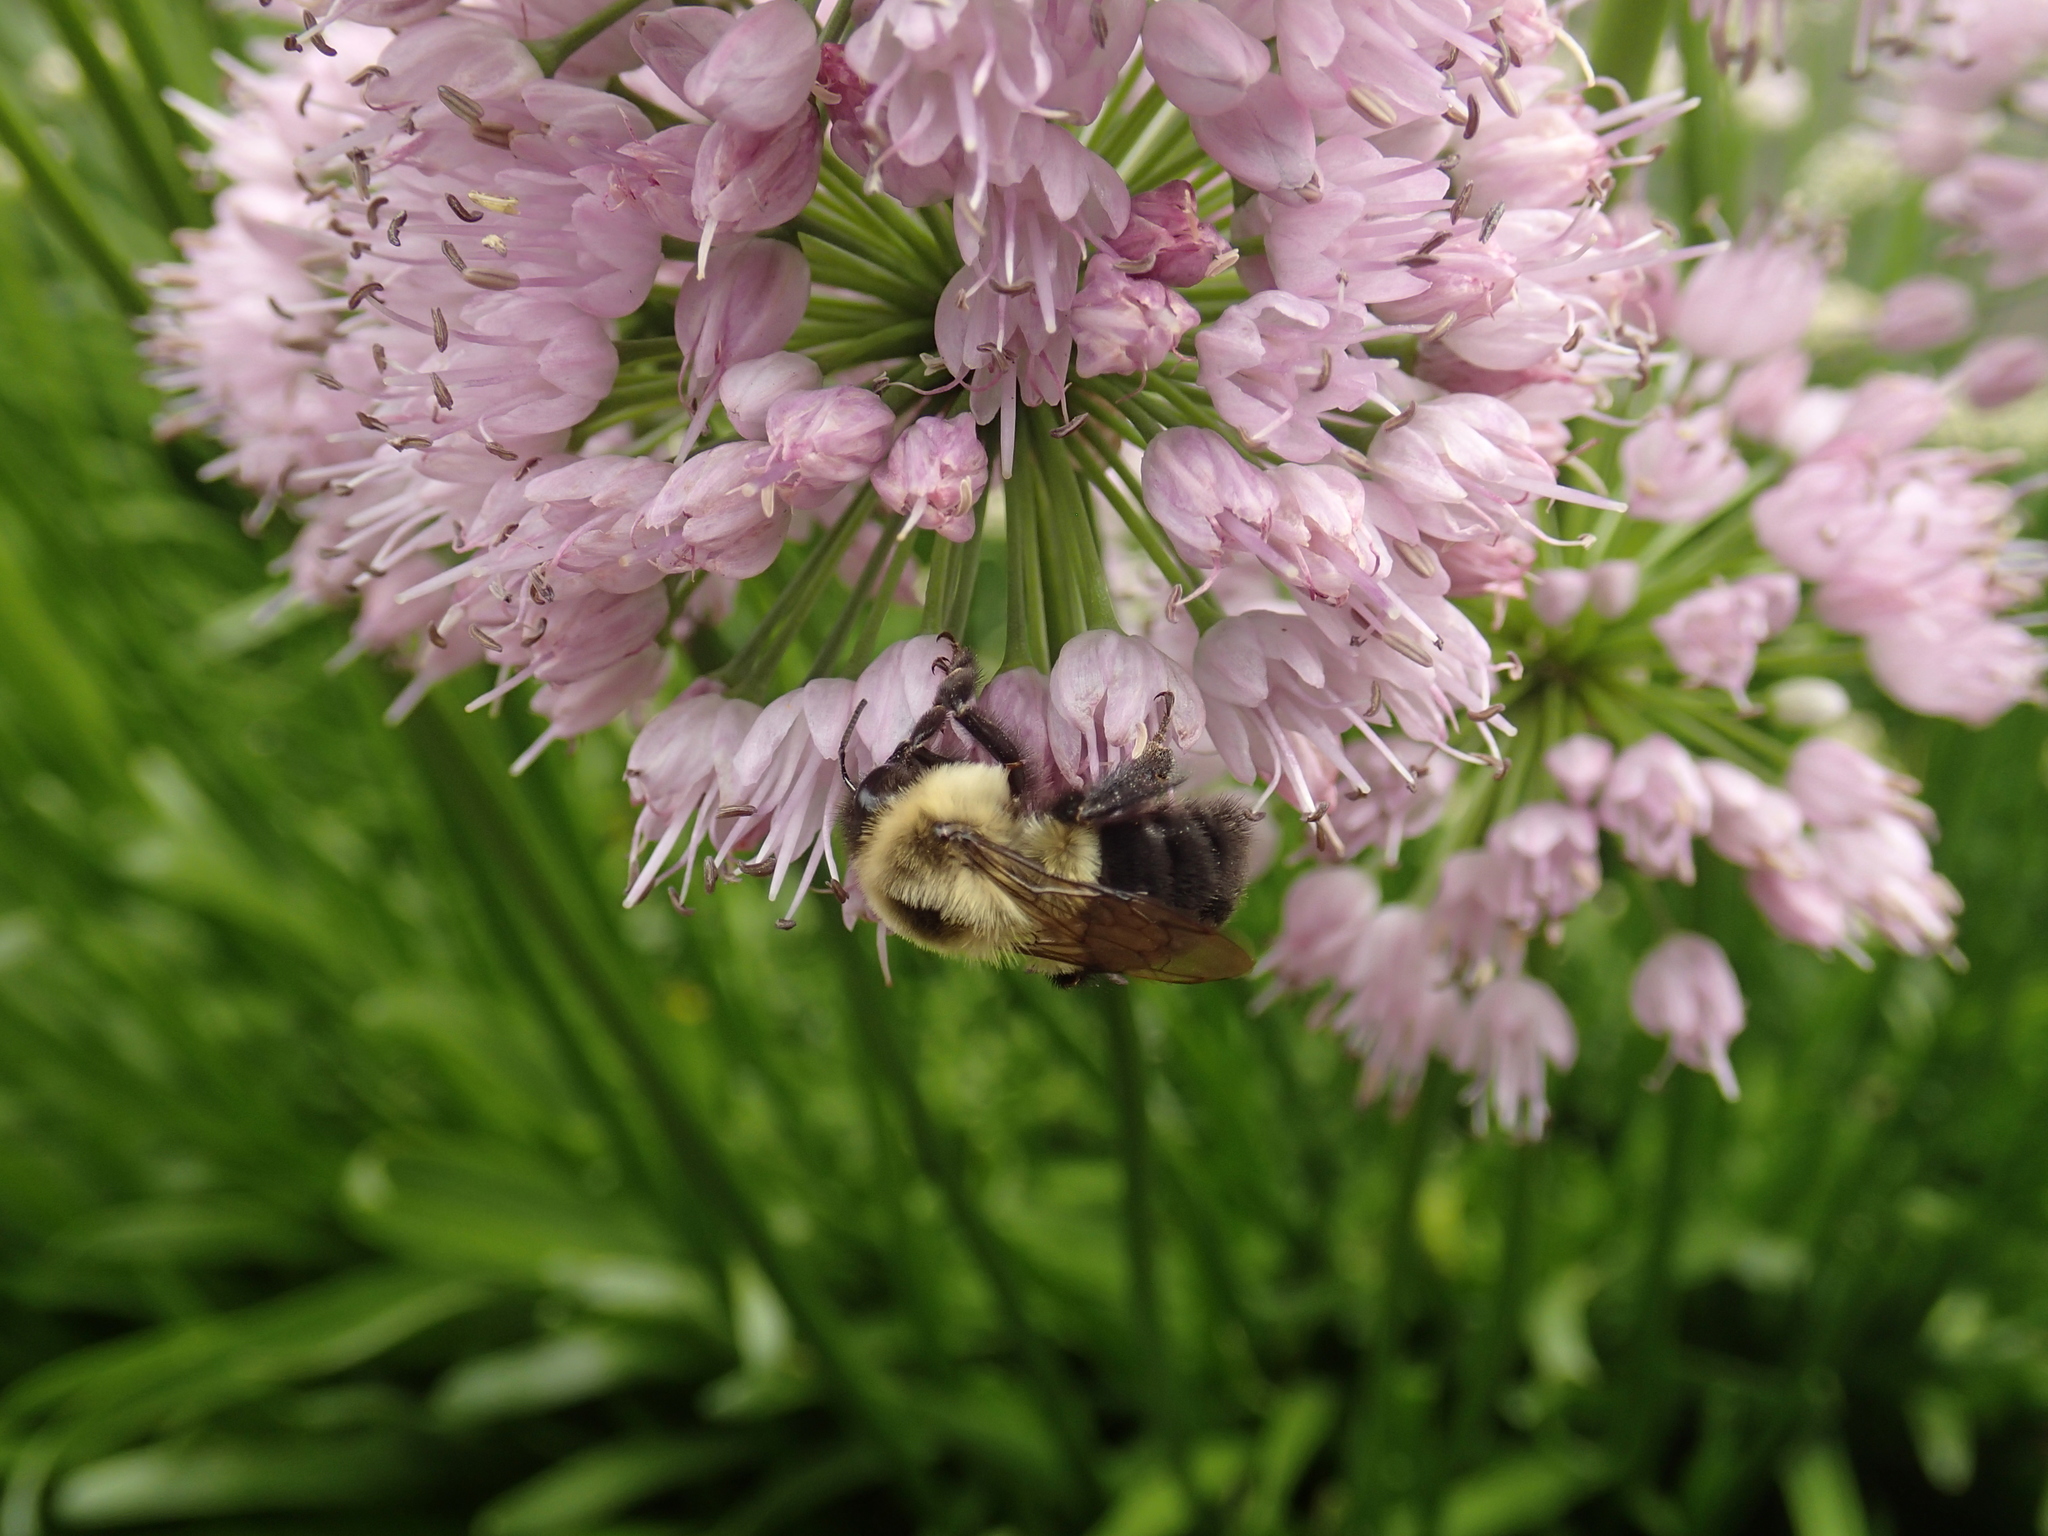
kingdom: Animalia
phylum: Arthropoda
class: Insecta
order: Hymenoptera
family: Apidae
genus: Bombus
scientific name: Bombus impatiens
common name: Common eastern bumble bee
